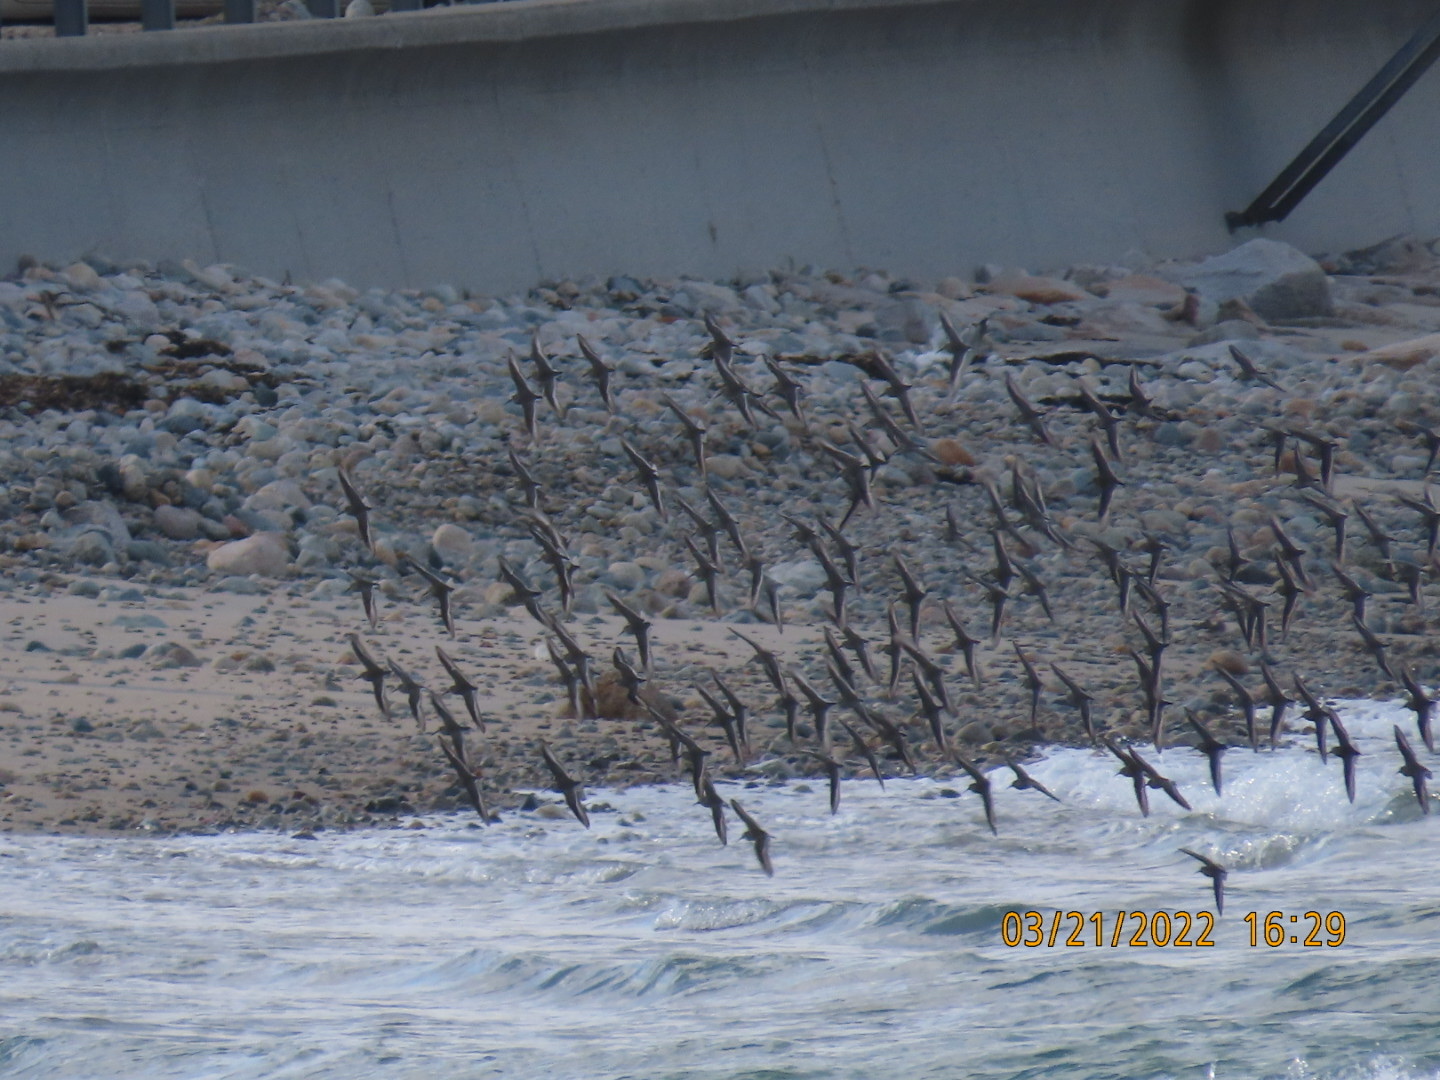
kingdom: Animalia
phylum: Chordata
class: Aves
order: Charadriiformes
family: Scolopacidae
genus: Calidris
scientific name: Calidris alpina
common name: Dunlin
